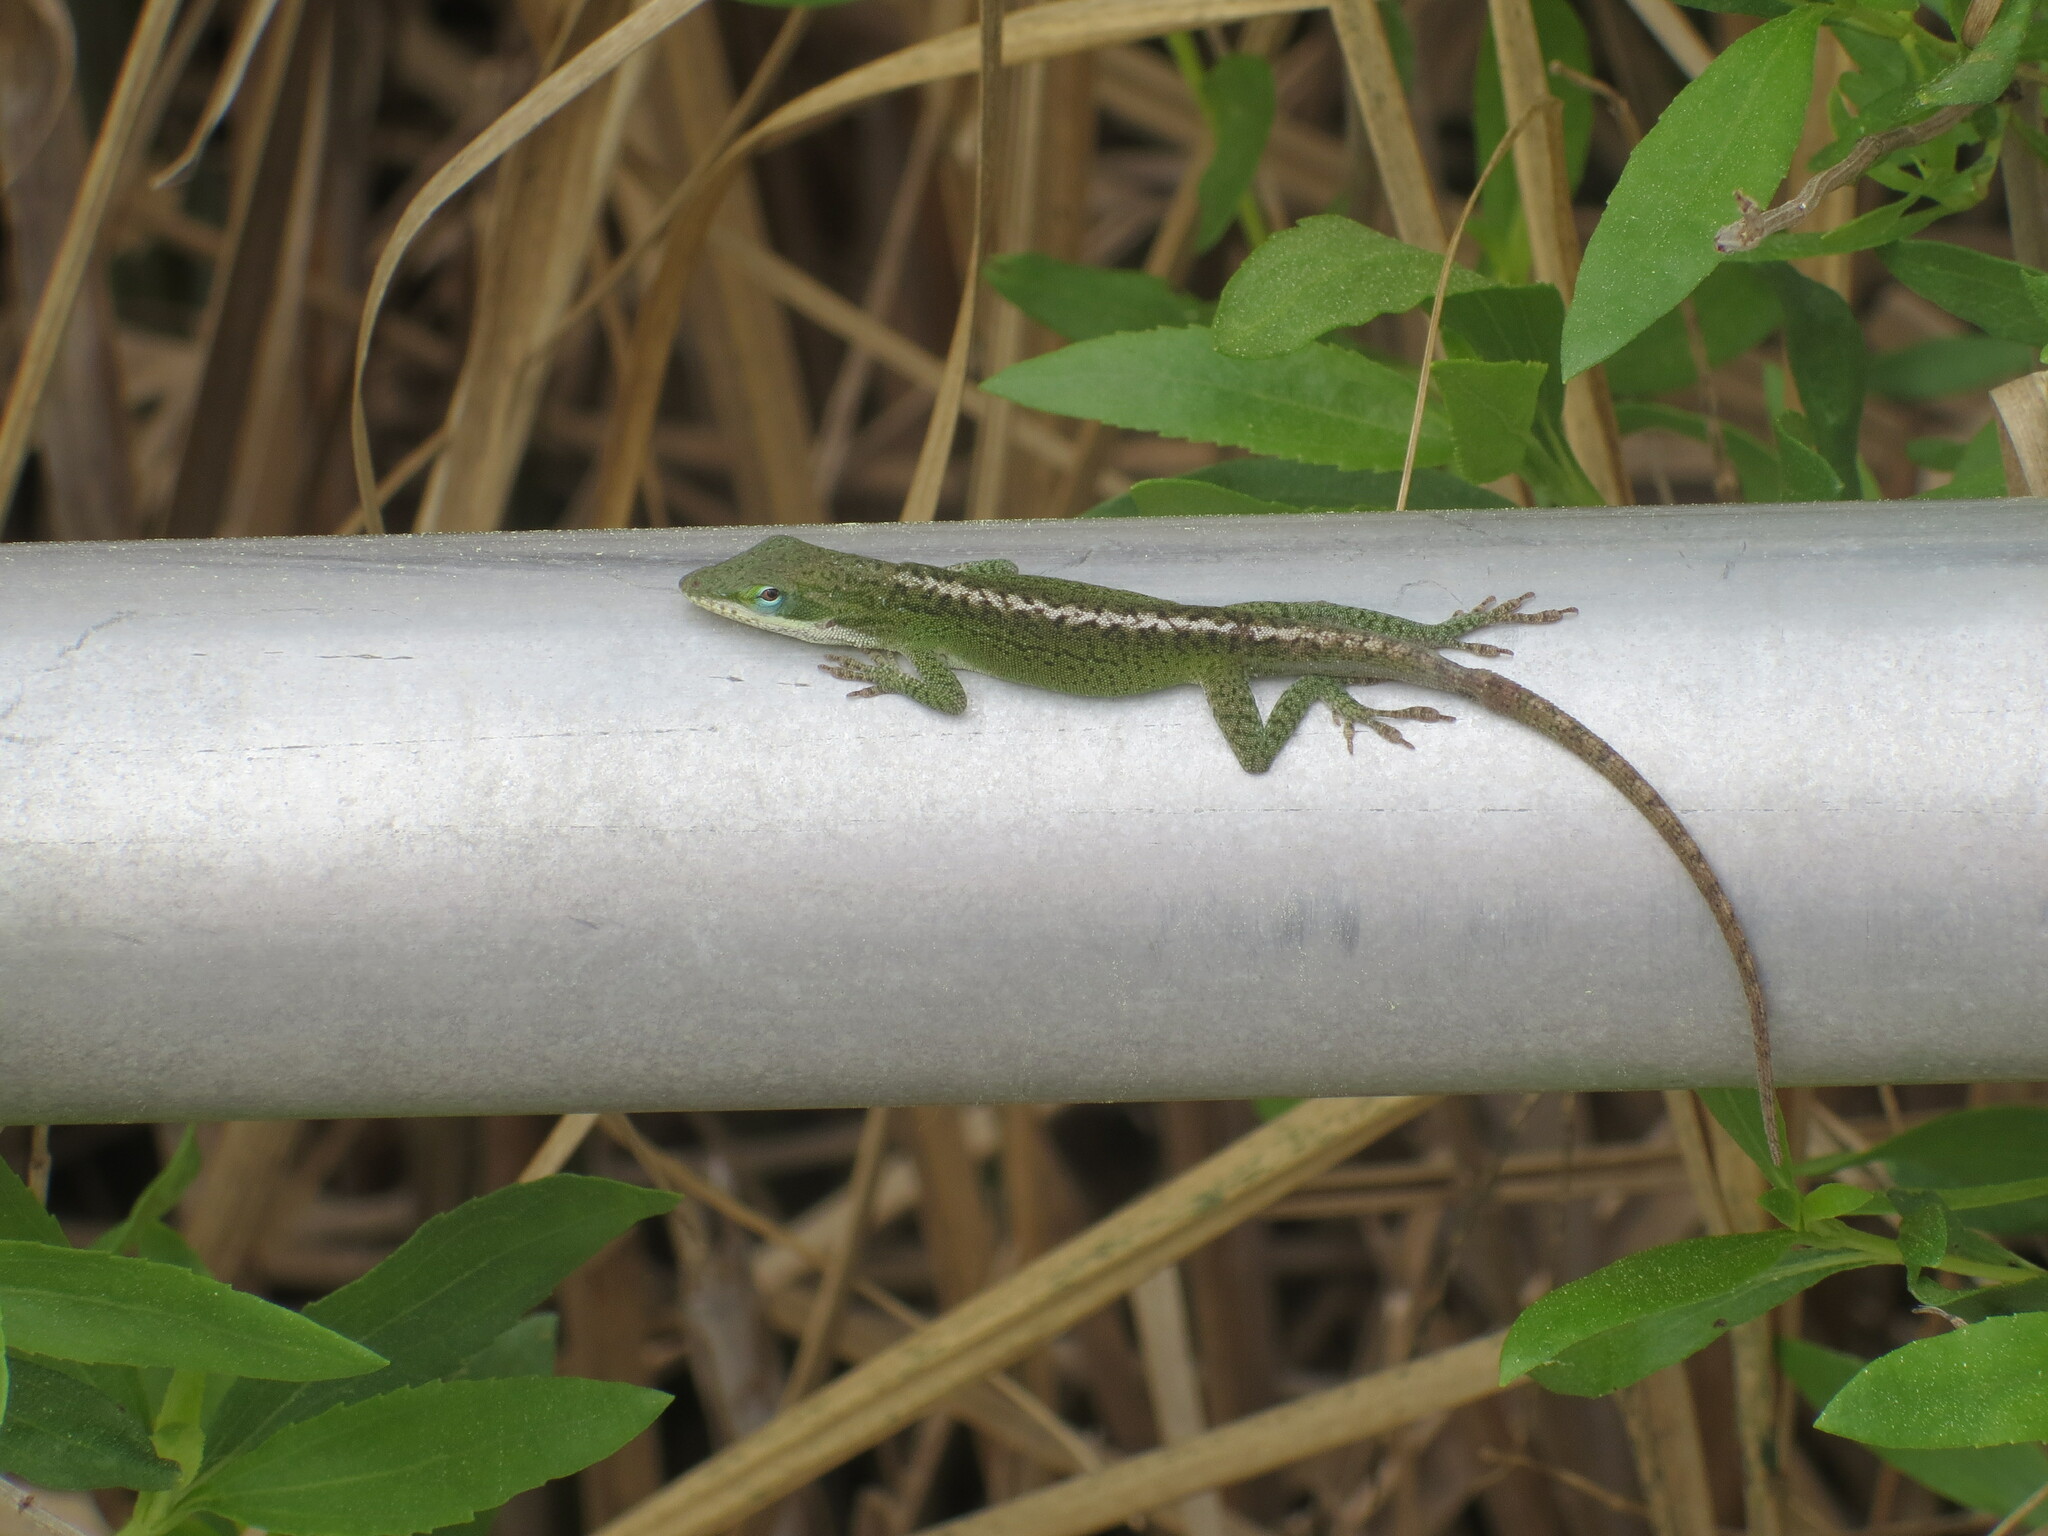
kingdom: Animalia
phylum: Chordata
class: Squamata
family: Dactyloidae
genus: Anolis
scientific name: Anolis carolinensis
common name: Green anole
